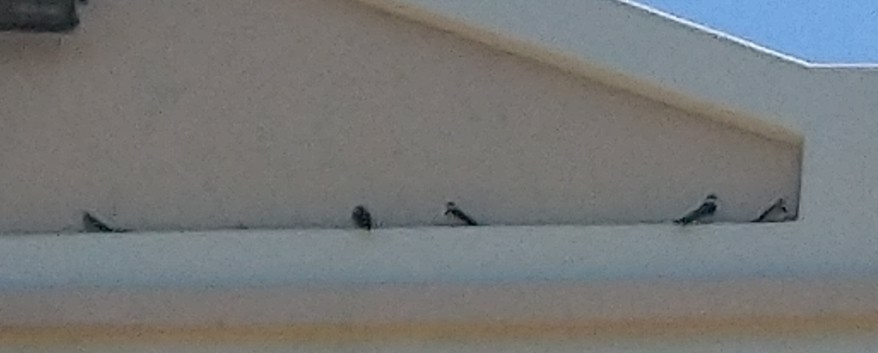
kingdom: Animalia
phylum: Chordata
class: Aves
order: Passeriformes
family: Hirundinidae
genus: Hirundo
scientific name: Hirundo albigularis
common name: White-throated swallow
